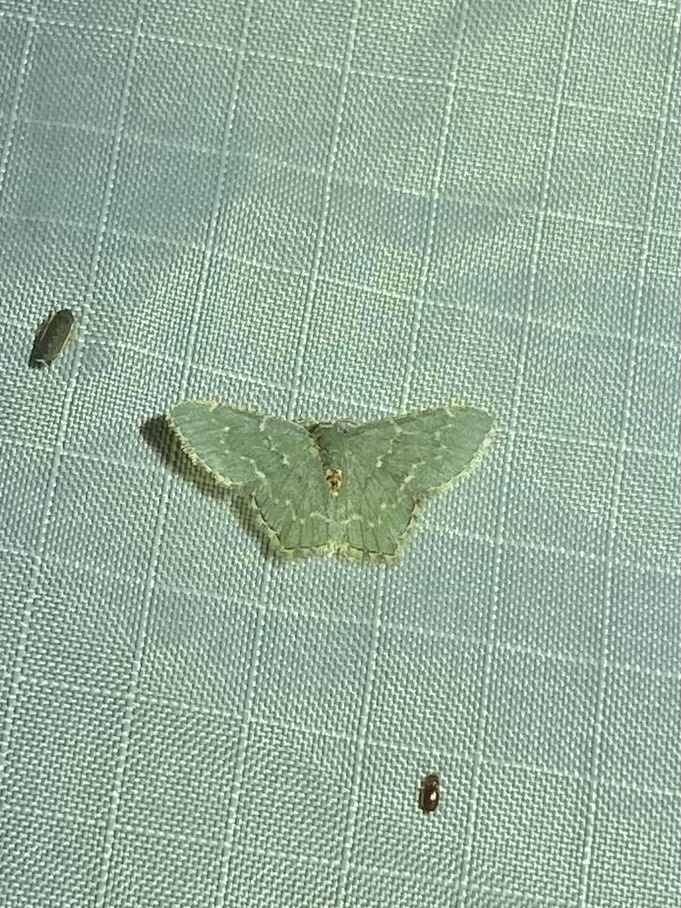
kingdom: Animalia
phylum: Arthropoda
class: Insecta
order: Lepidoptera
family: Geometridae
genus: Chloropteryx
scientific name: Chloropteryx languescens
